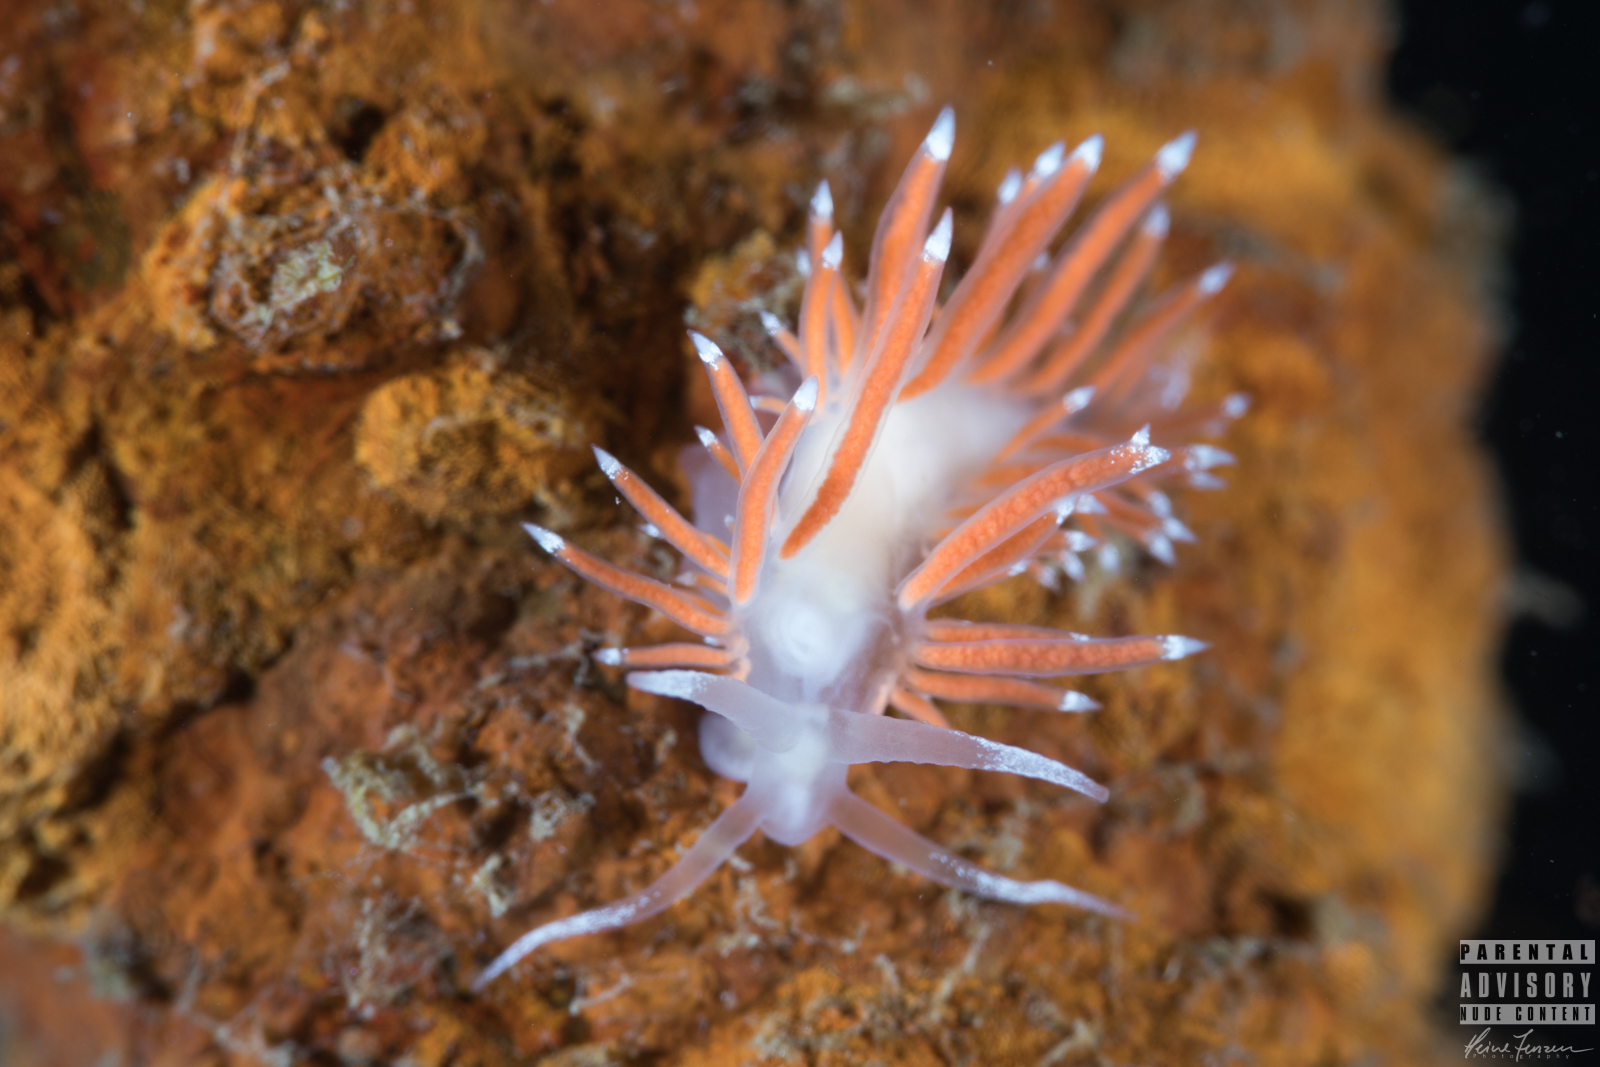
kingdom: Animalia
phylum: Mollusca
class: Gastropoda
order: Nudibranchia
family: Coryphellidae
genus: Coryphella
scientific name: Coryphella gracilis
